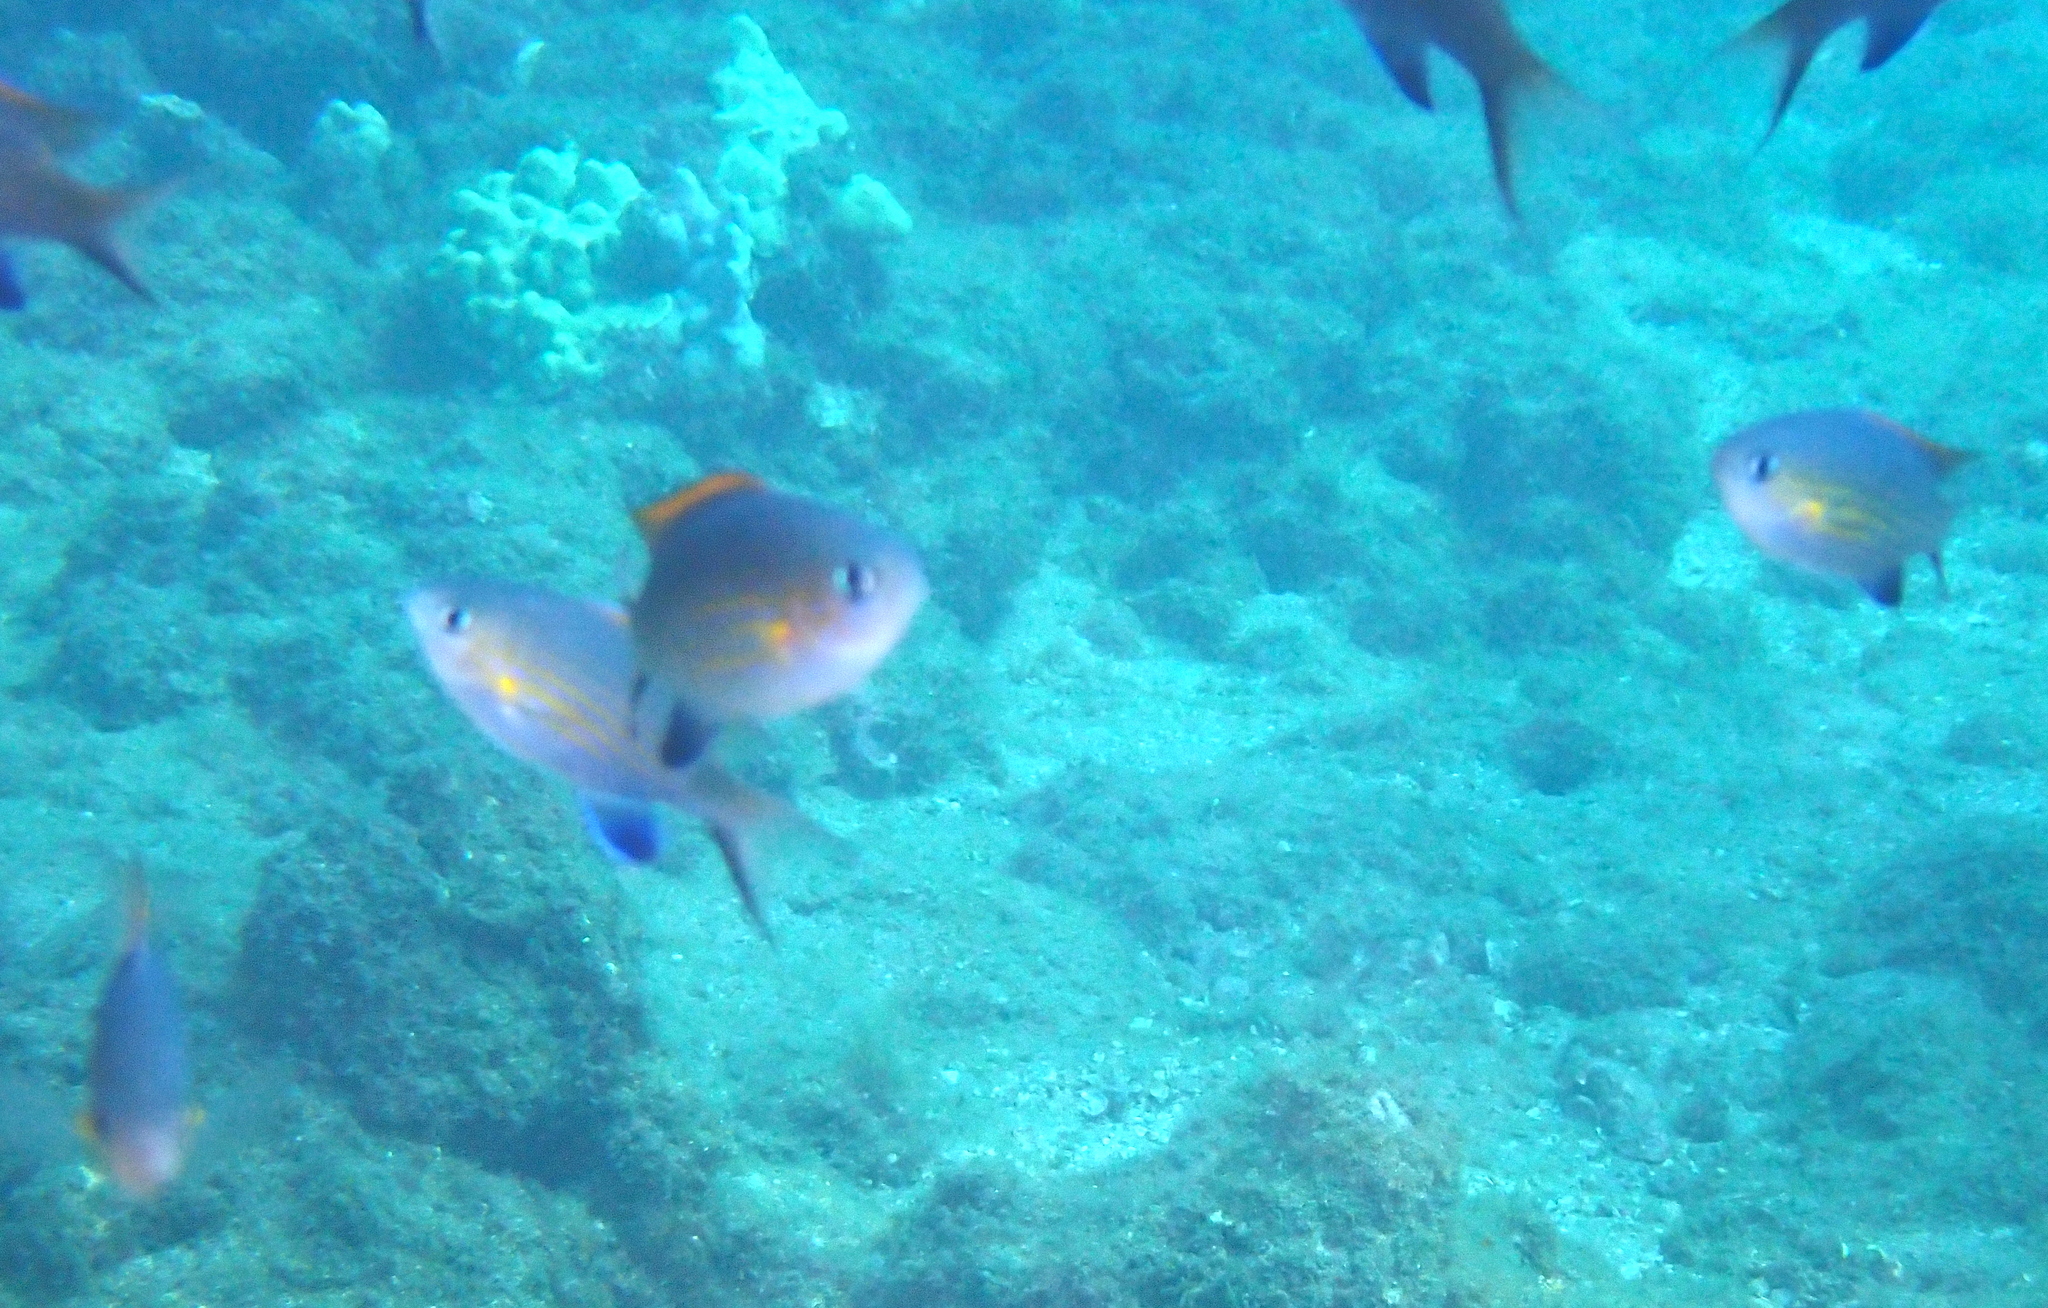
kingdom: Animalia
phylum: Chordata
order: Perciformes
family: Pomacentridae
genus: Chromis
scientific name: Chromis vanderbilti
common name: Vanderbilt's chromis
